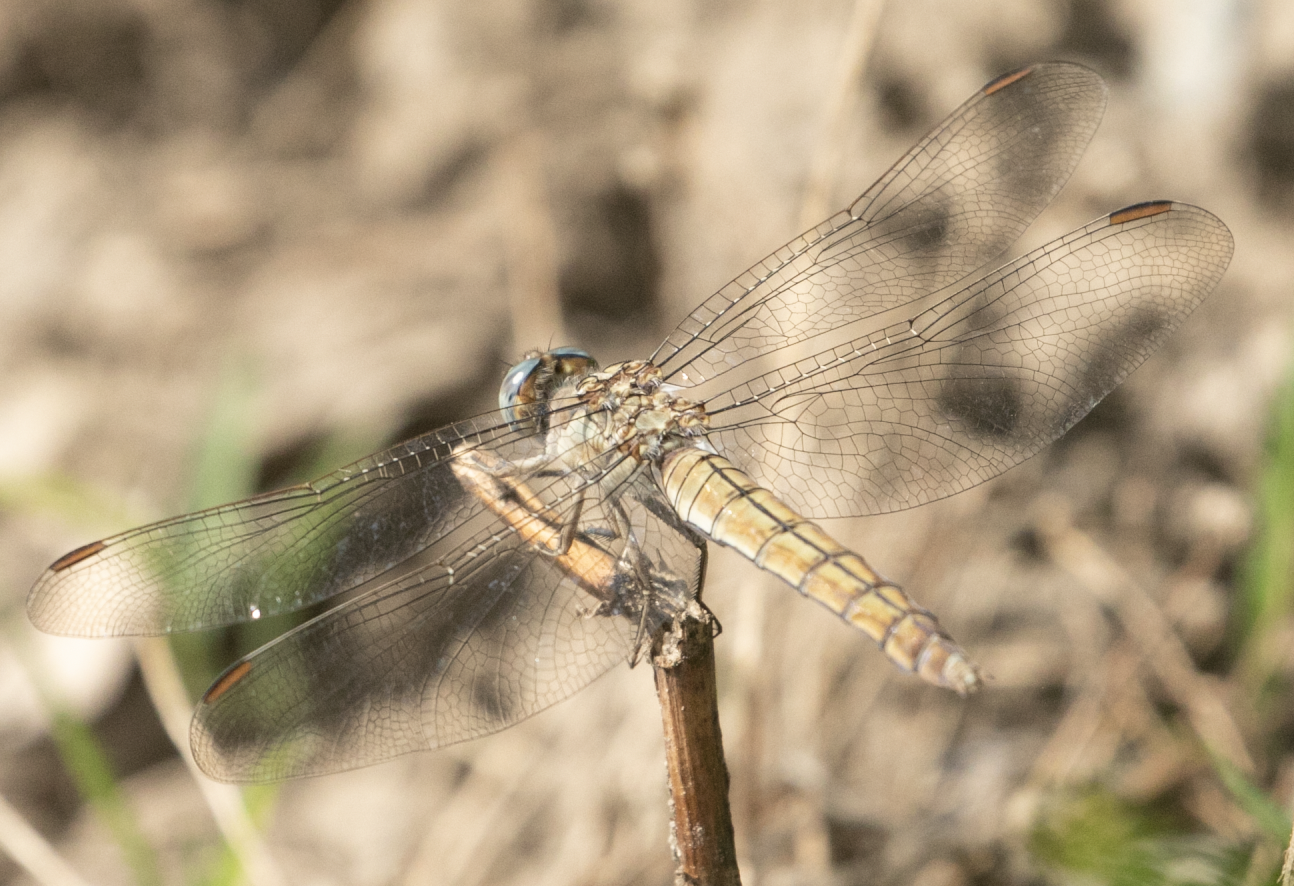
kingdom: Animalia
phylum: Arthropoda
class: Insecta
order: Odonata
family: Libellulidae
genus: Orthetrum
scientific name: Orthetrum brunneum
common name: Southern skimmer
